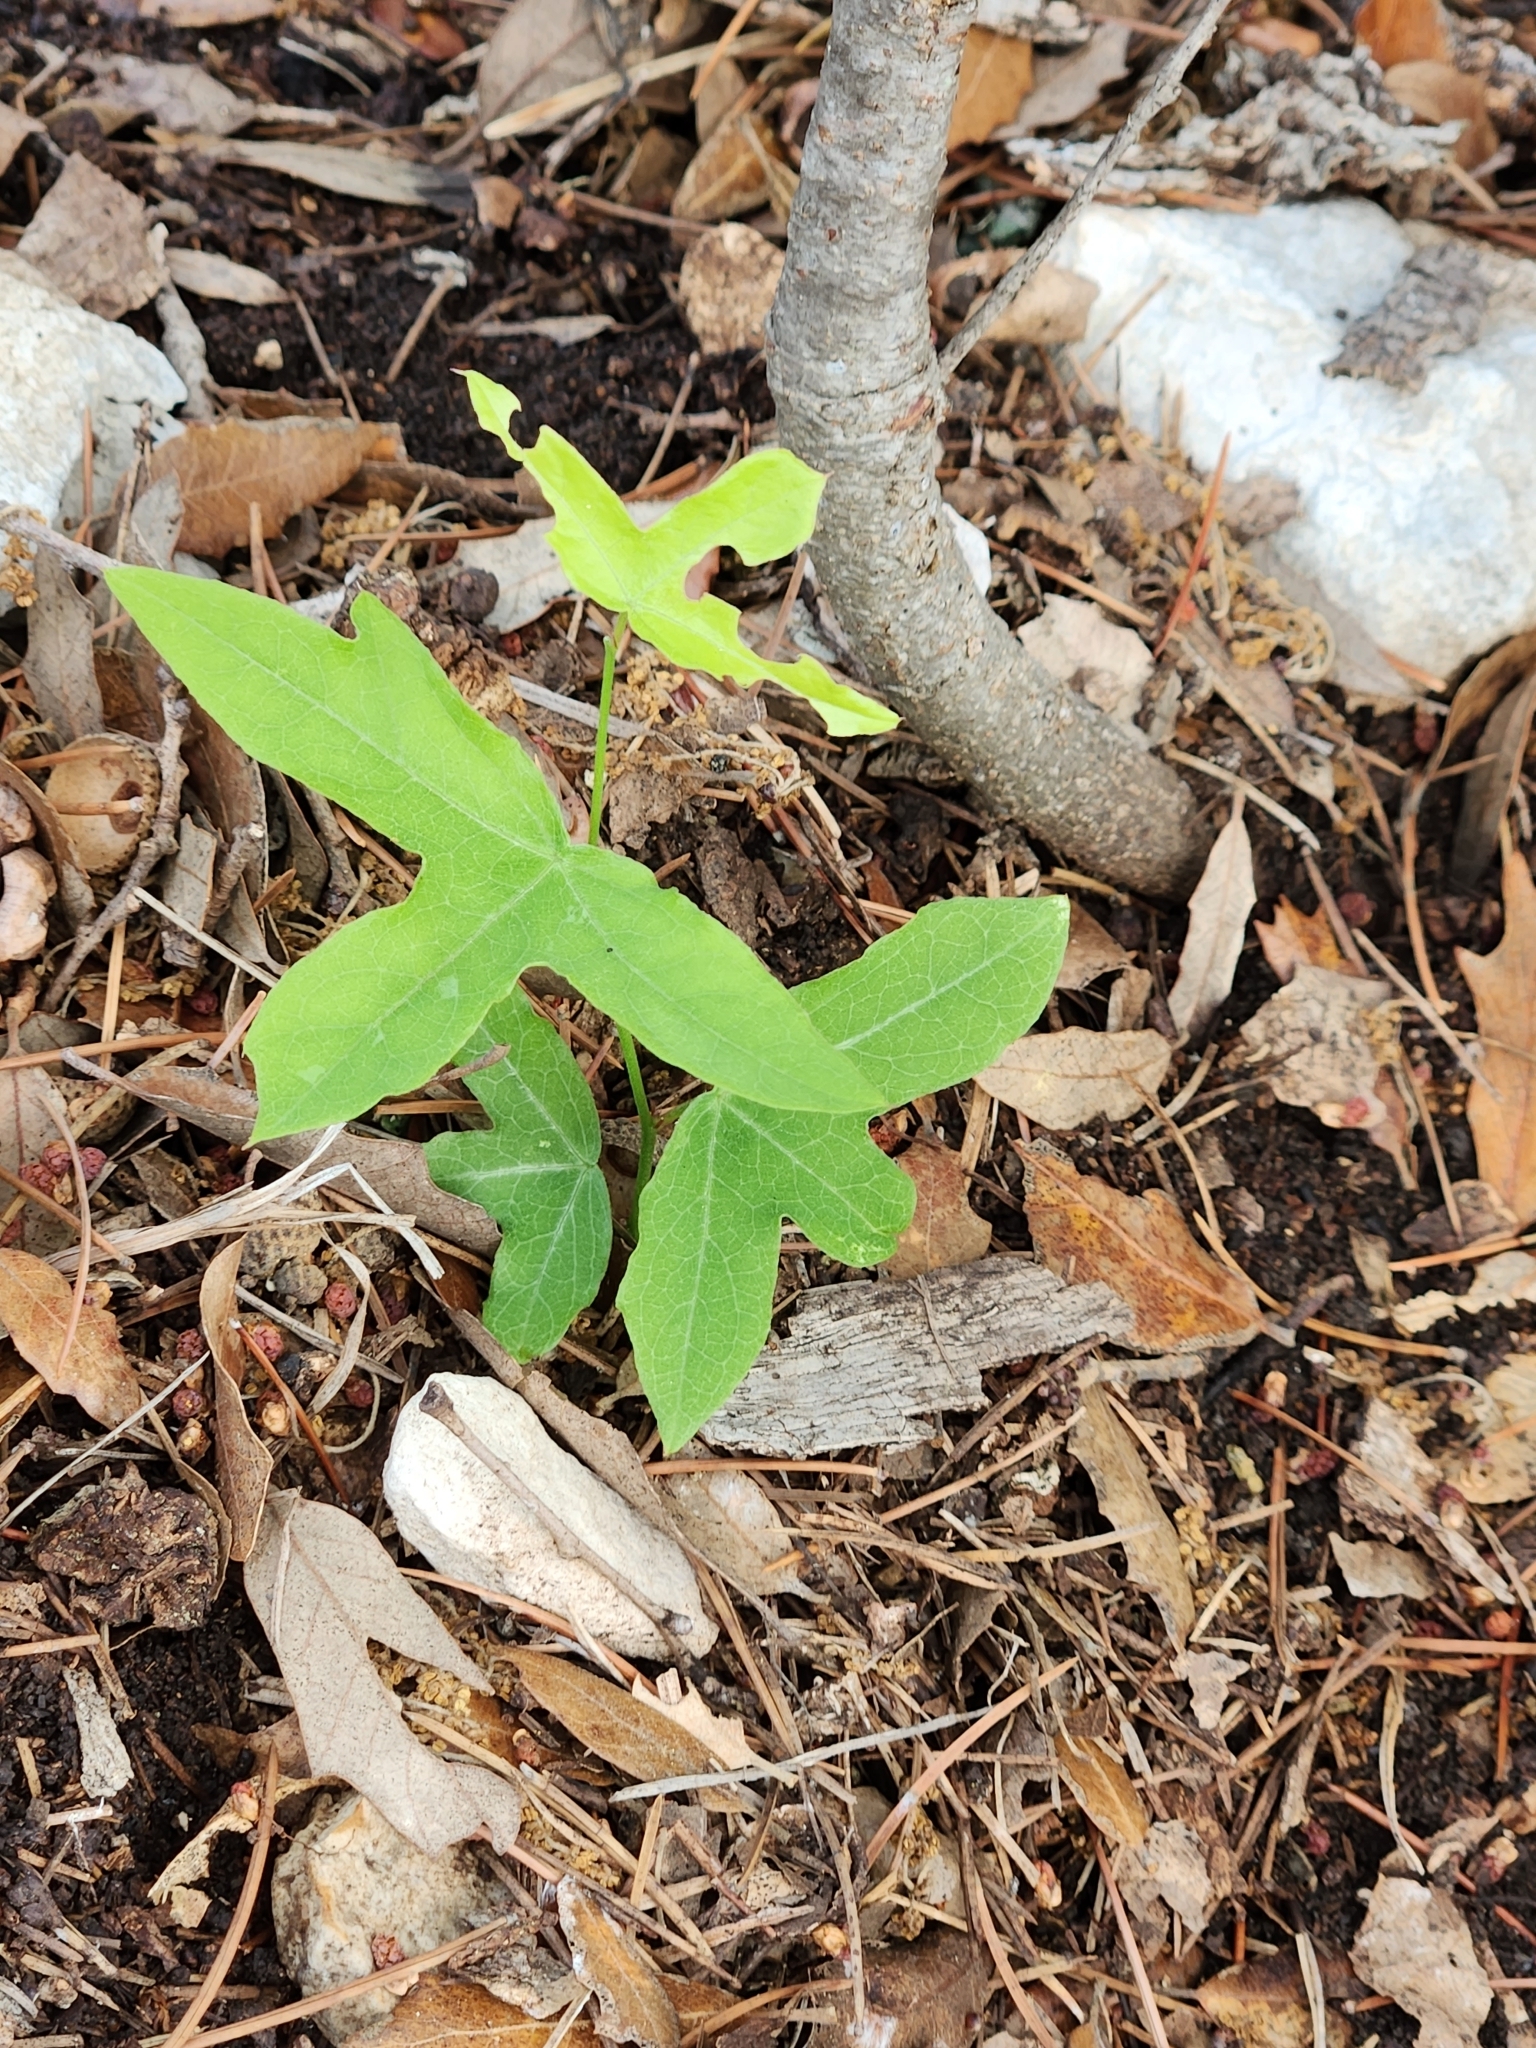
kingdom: Plantae
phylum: Tracheophyta
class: Magnoliopsida
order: Malpighiales
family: Passifloraceae
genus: Passiflora
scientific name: Passiflora tenuiloba
